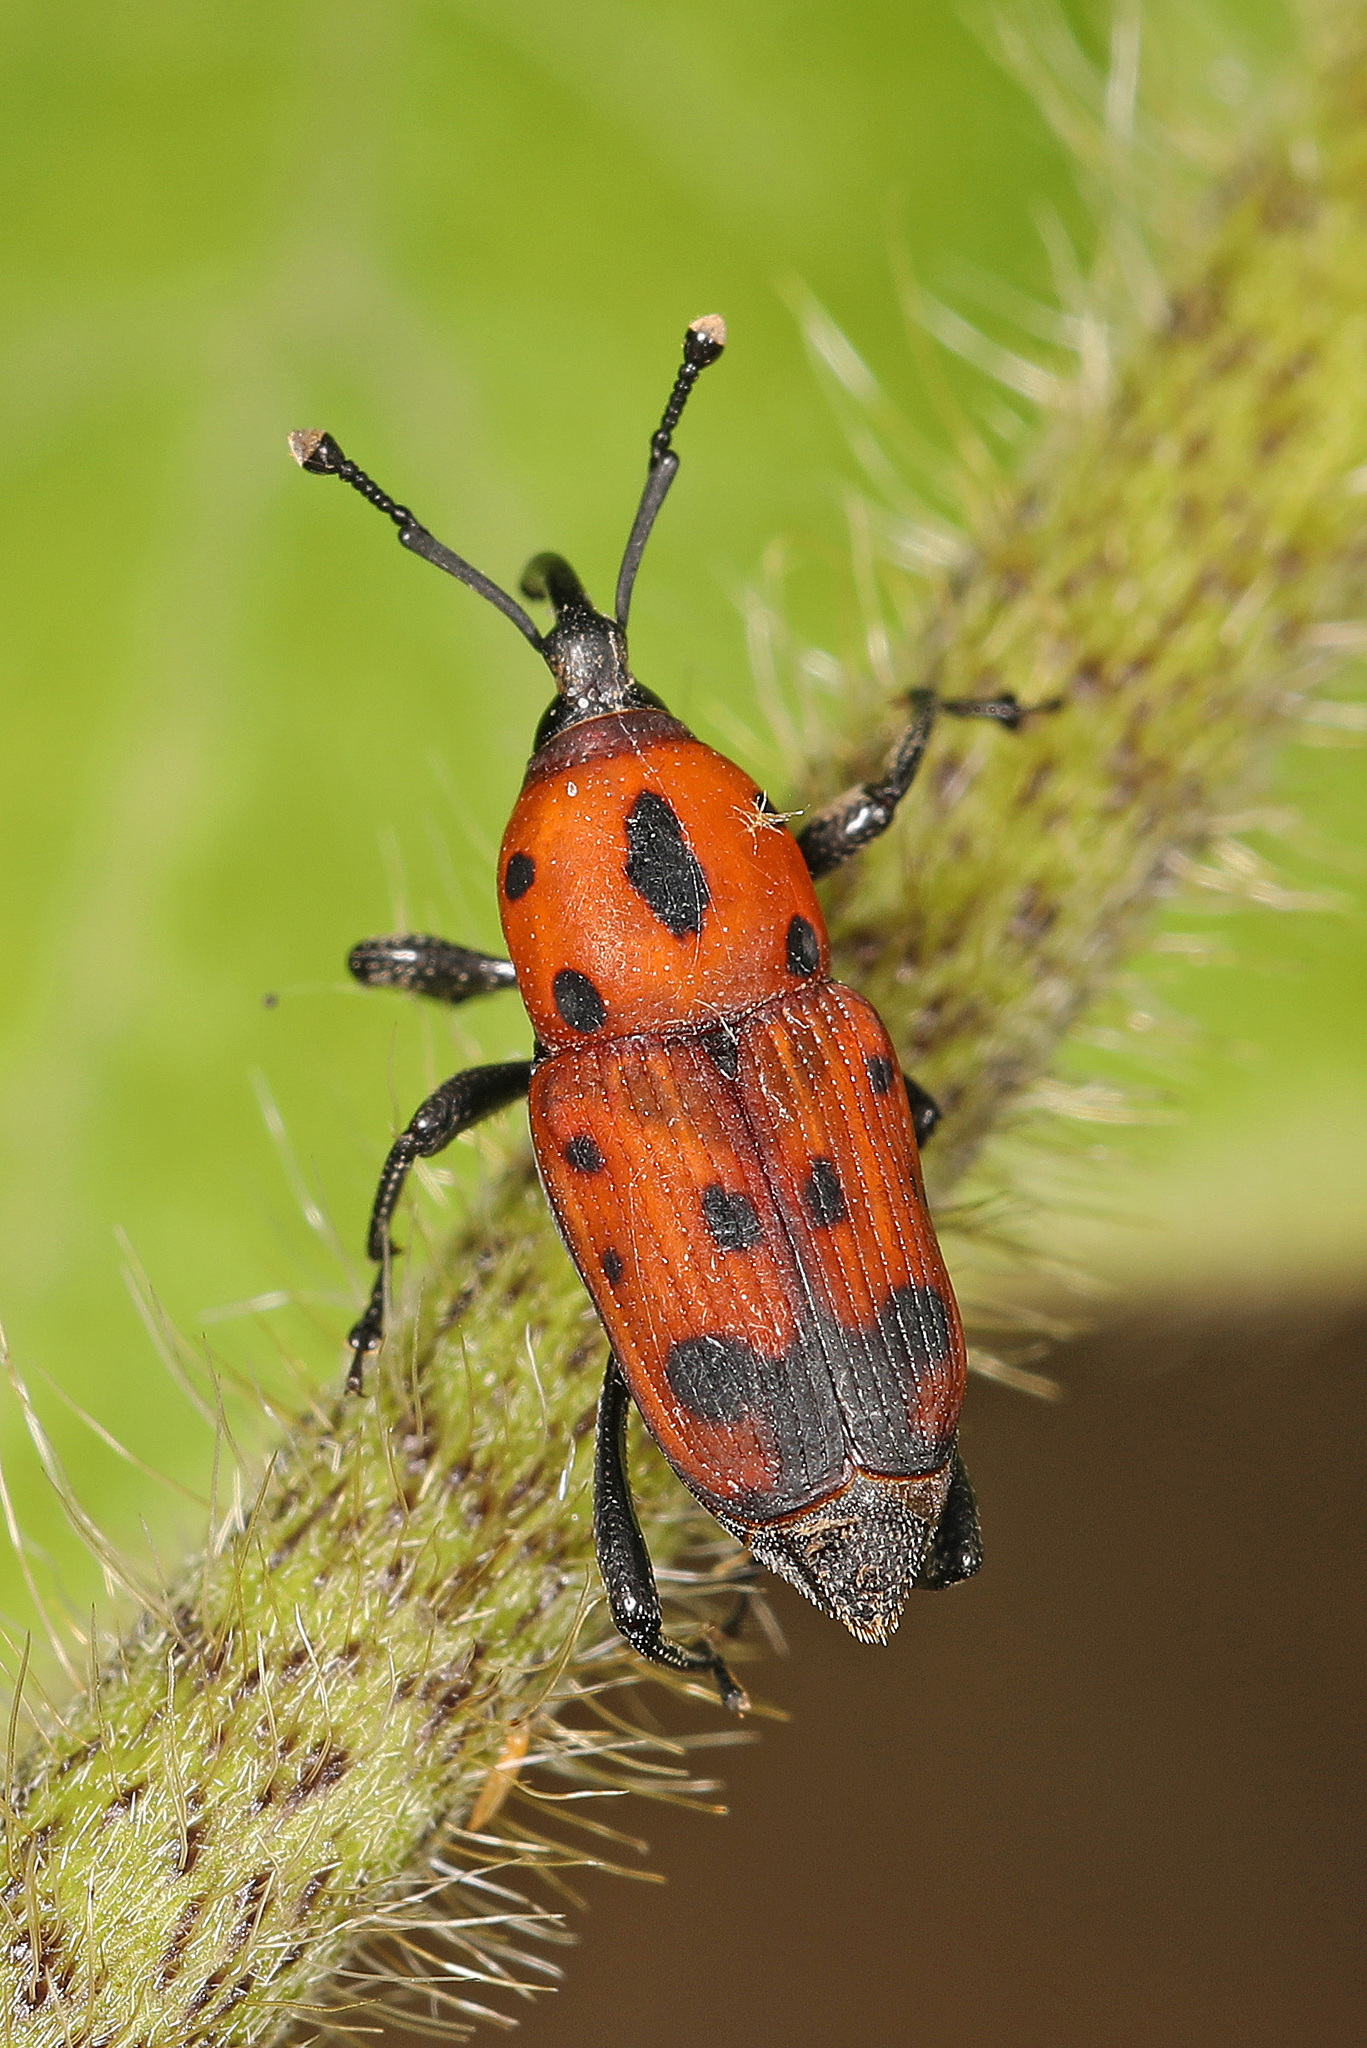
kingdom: Animalia
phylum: Arthropoda
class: Insecta
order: Coleoptera
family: Dryophthoridae
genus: Rhodobaenus
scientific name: Rhodobaenus quinquepunctatus
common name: Cocklebur weevil
